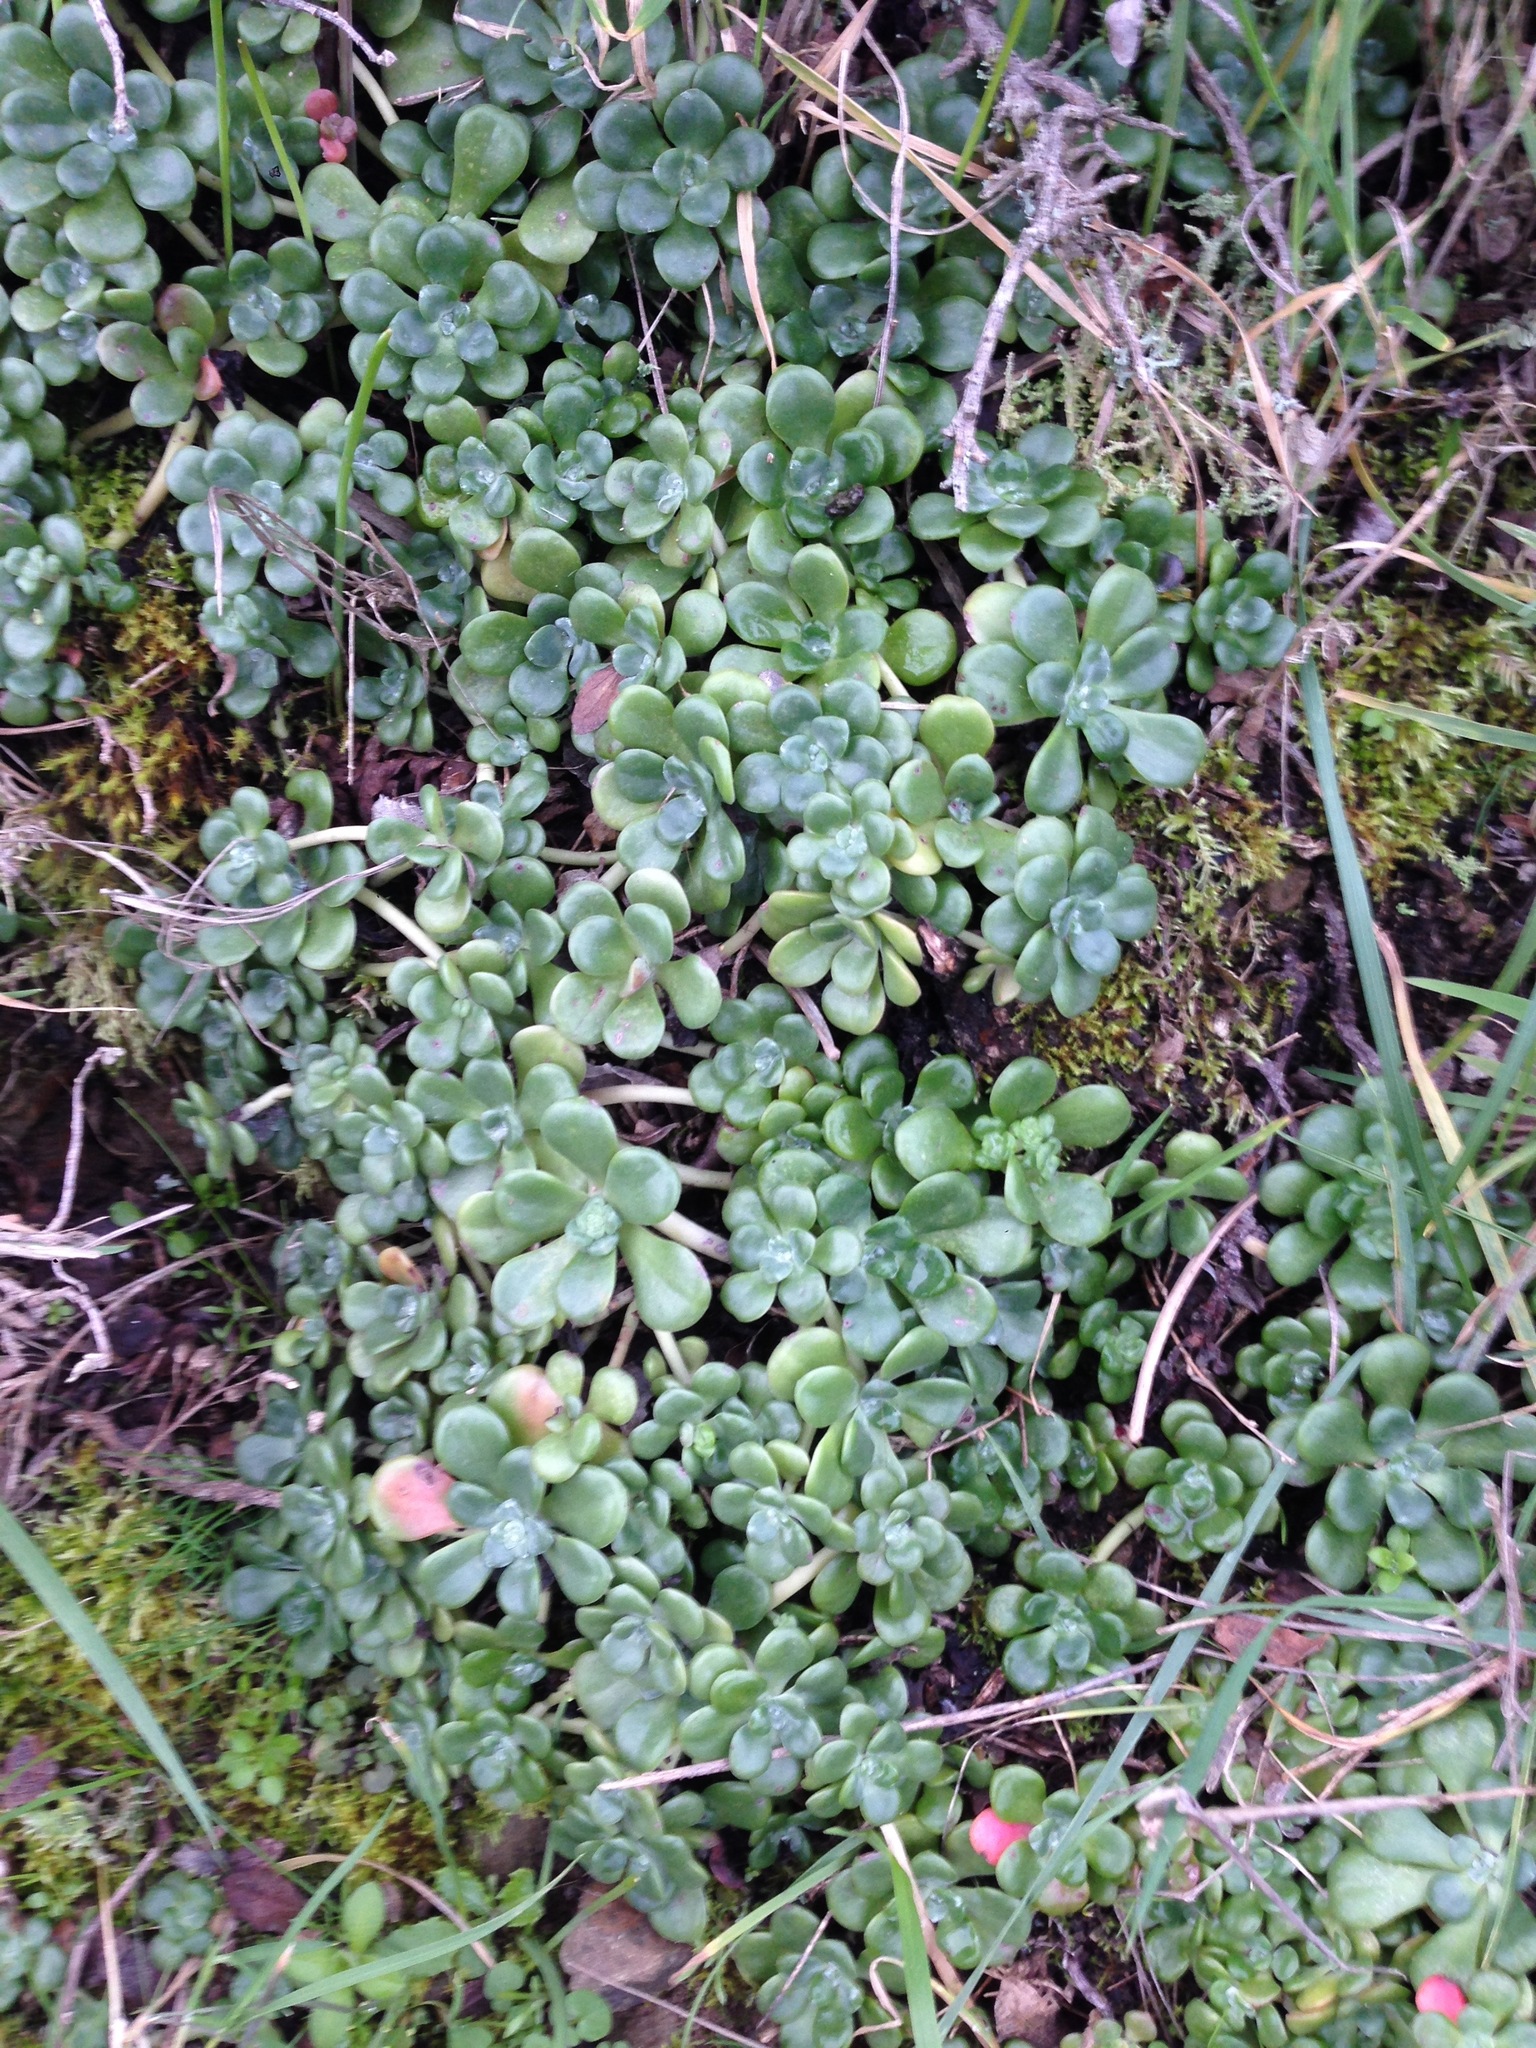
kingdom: Plantae
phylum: Tracheophyta
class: Magnoliopsida
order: Saxifragales
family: Crassulaceae
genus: Sedum
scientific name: Sedum spathulifolium
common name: Colorado stonecrop
